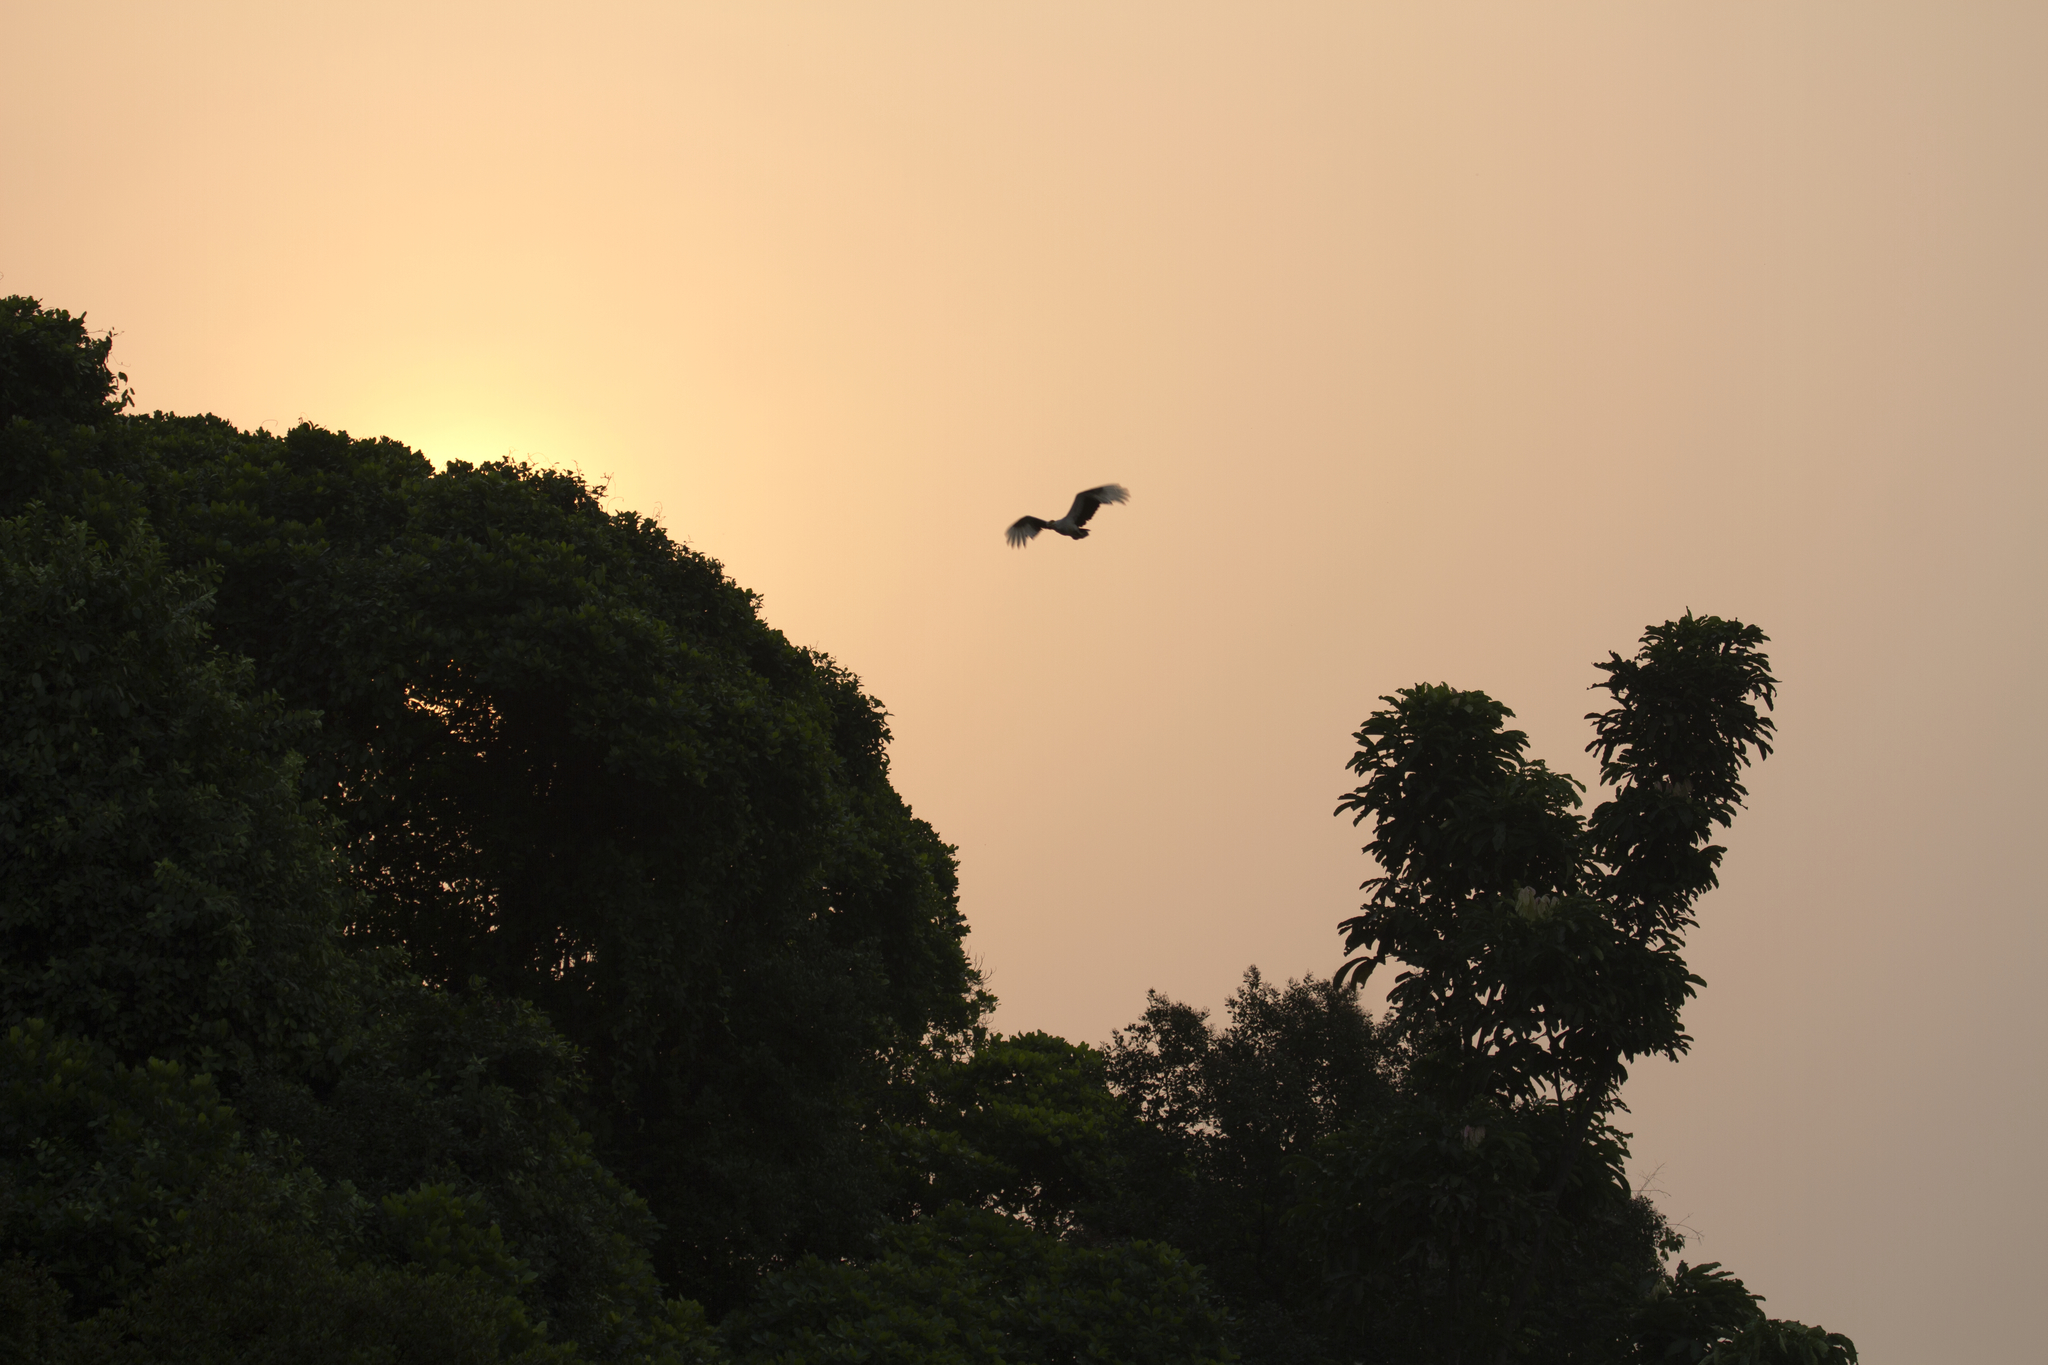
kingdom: Animalia
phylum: Chordata
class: Aves
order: Accipitriformes
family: Accipitridae
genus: Gypohierax
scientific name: Gypohierax angolensis
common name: Palm-nut vulture
